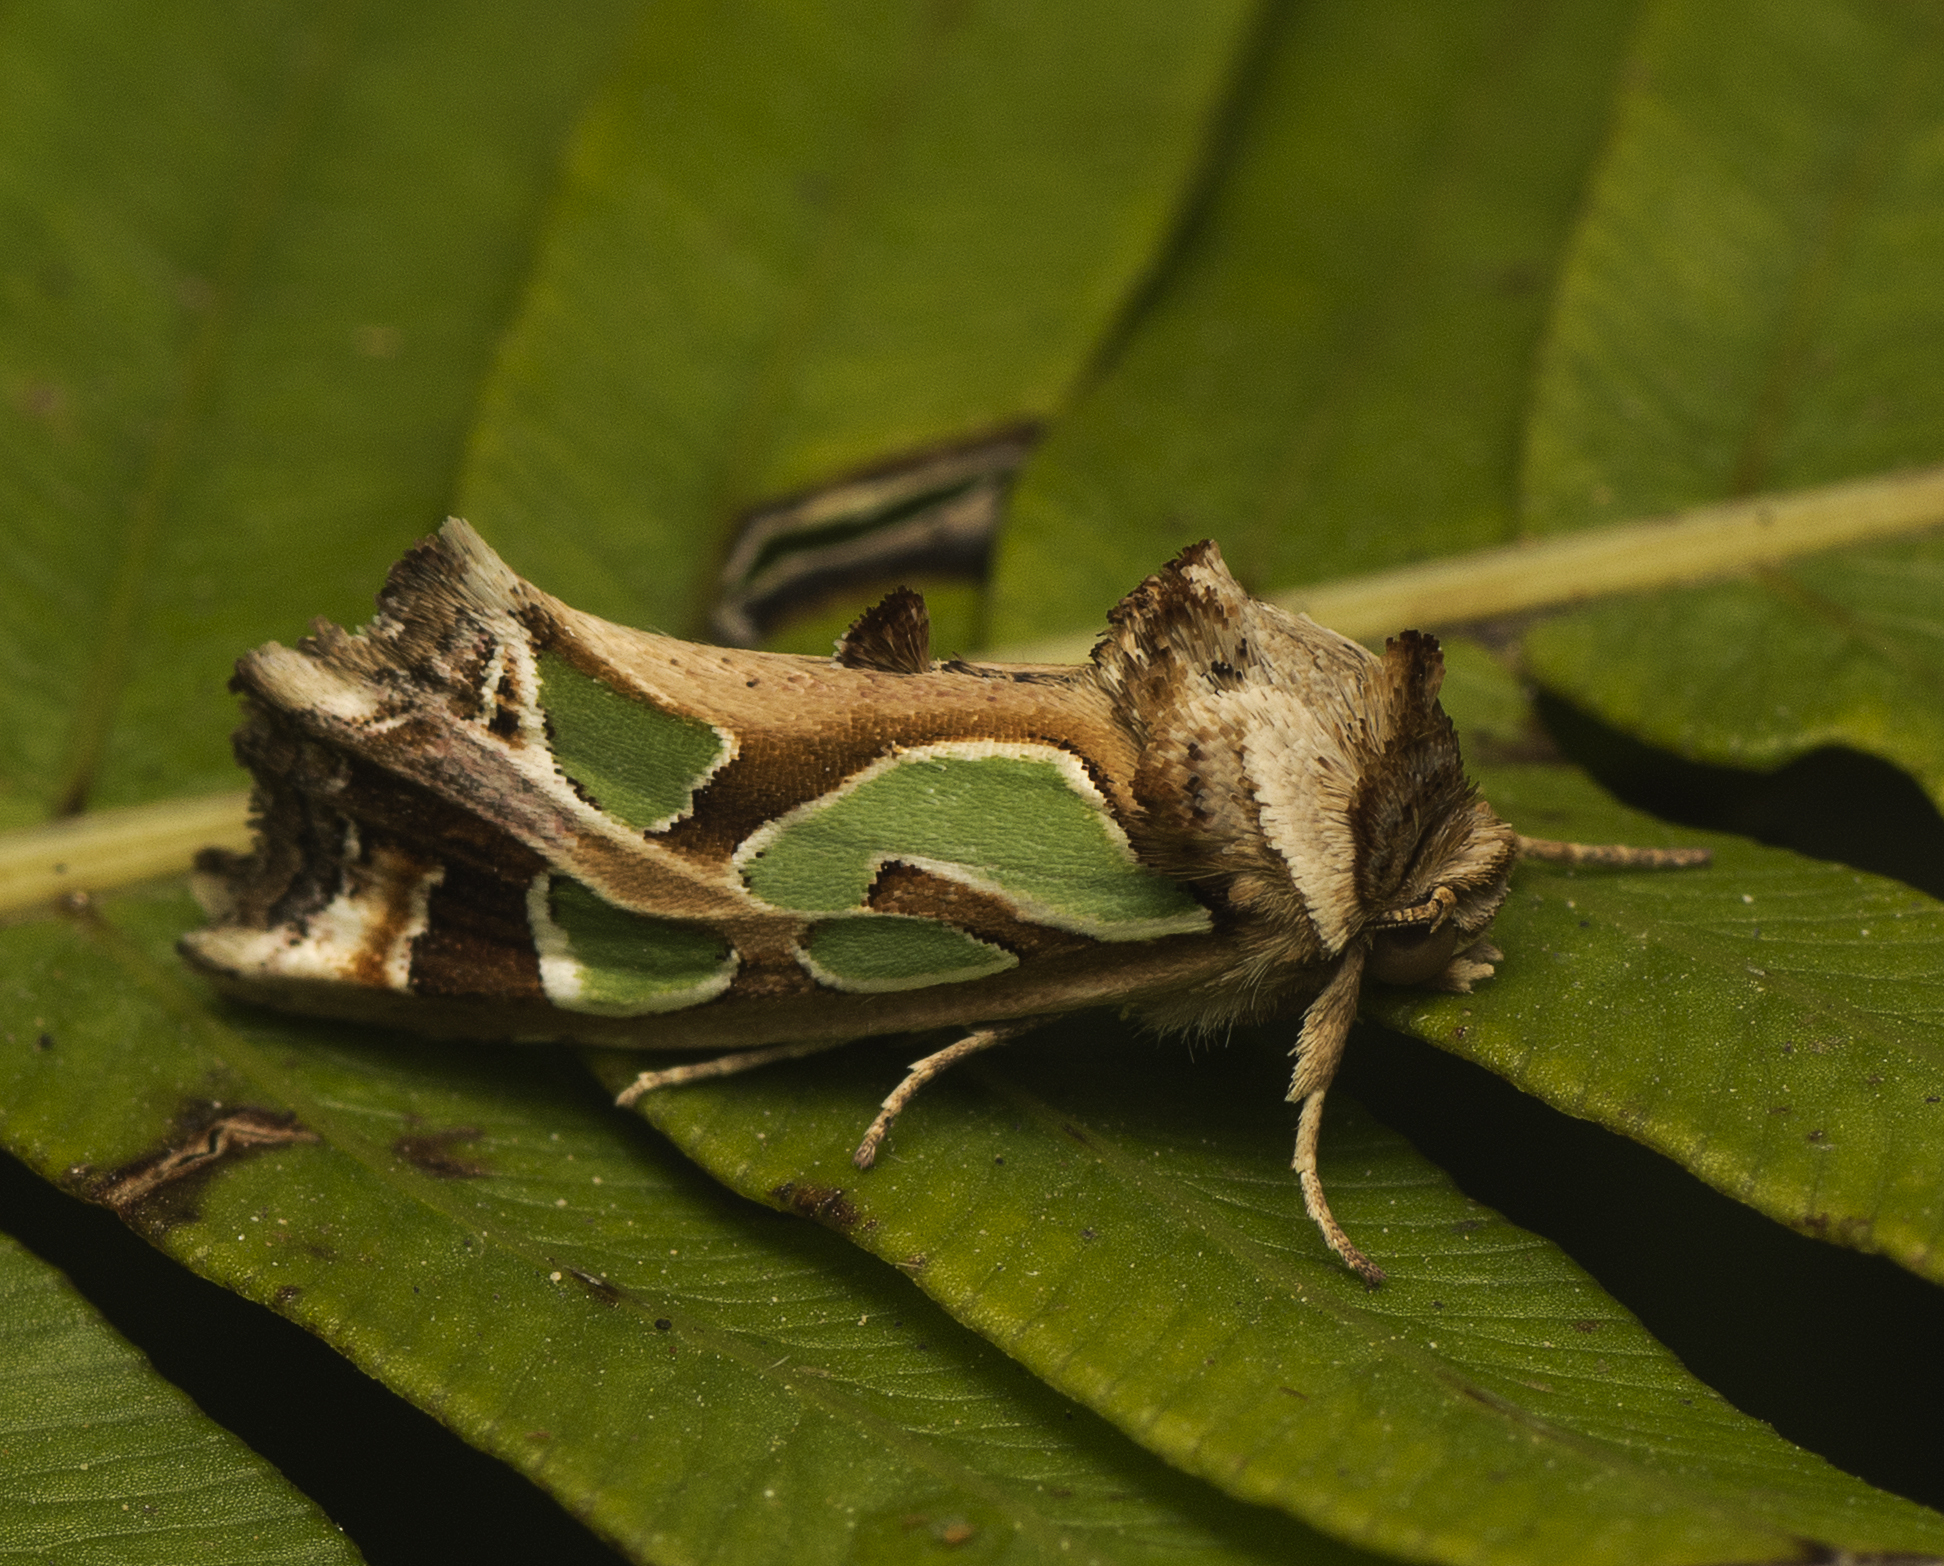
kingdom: Animalia
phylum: Arthropoda
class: Insecta
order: Lepidoptera
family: Noctuidae
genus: Cosmodes
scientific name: Cosmodes elegans
